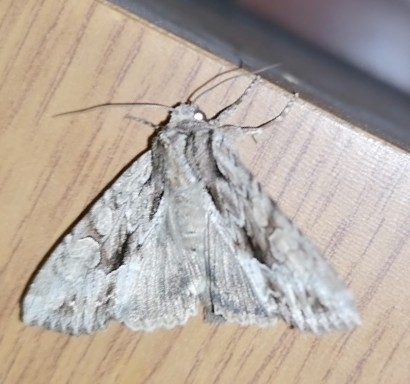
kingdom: Animalia
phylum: Arthropoda
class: Insecta
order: Lepidoptera
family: Noctuidae
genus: Apamea
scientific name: Apamea monoglypha
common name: Dark arches
